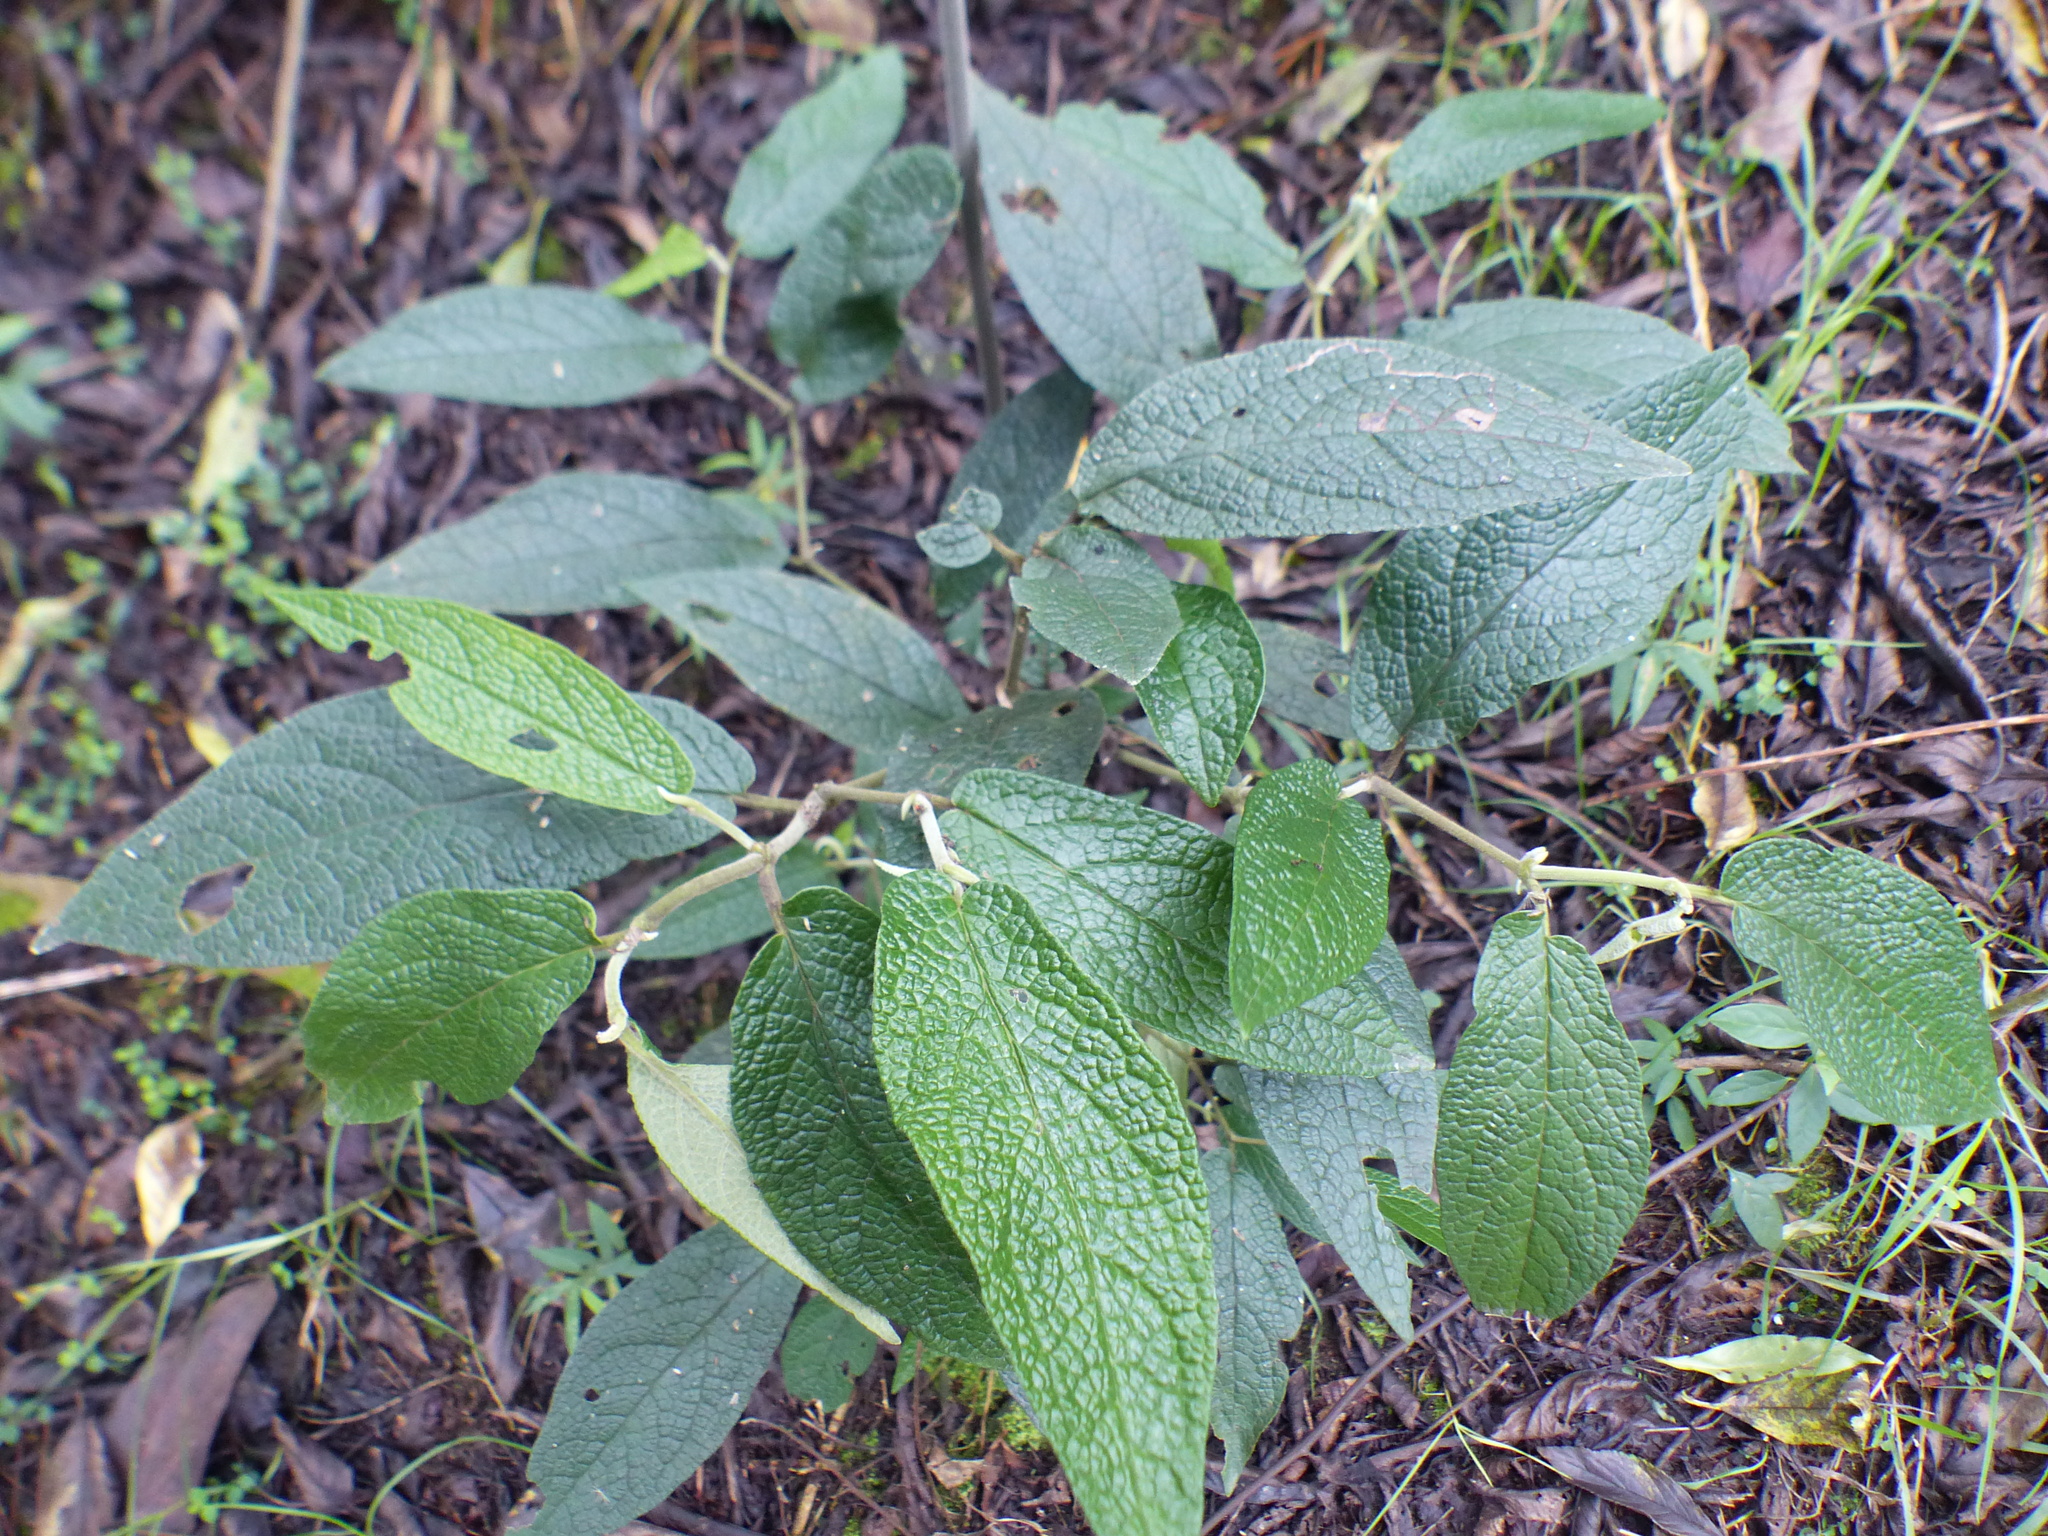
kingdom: Plantae
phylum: Tracheophyta
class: Magnoliopsida
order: Piperales
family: Piperaceae
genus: Piper
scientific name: Piper artanthe
